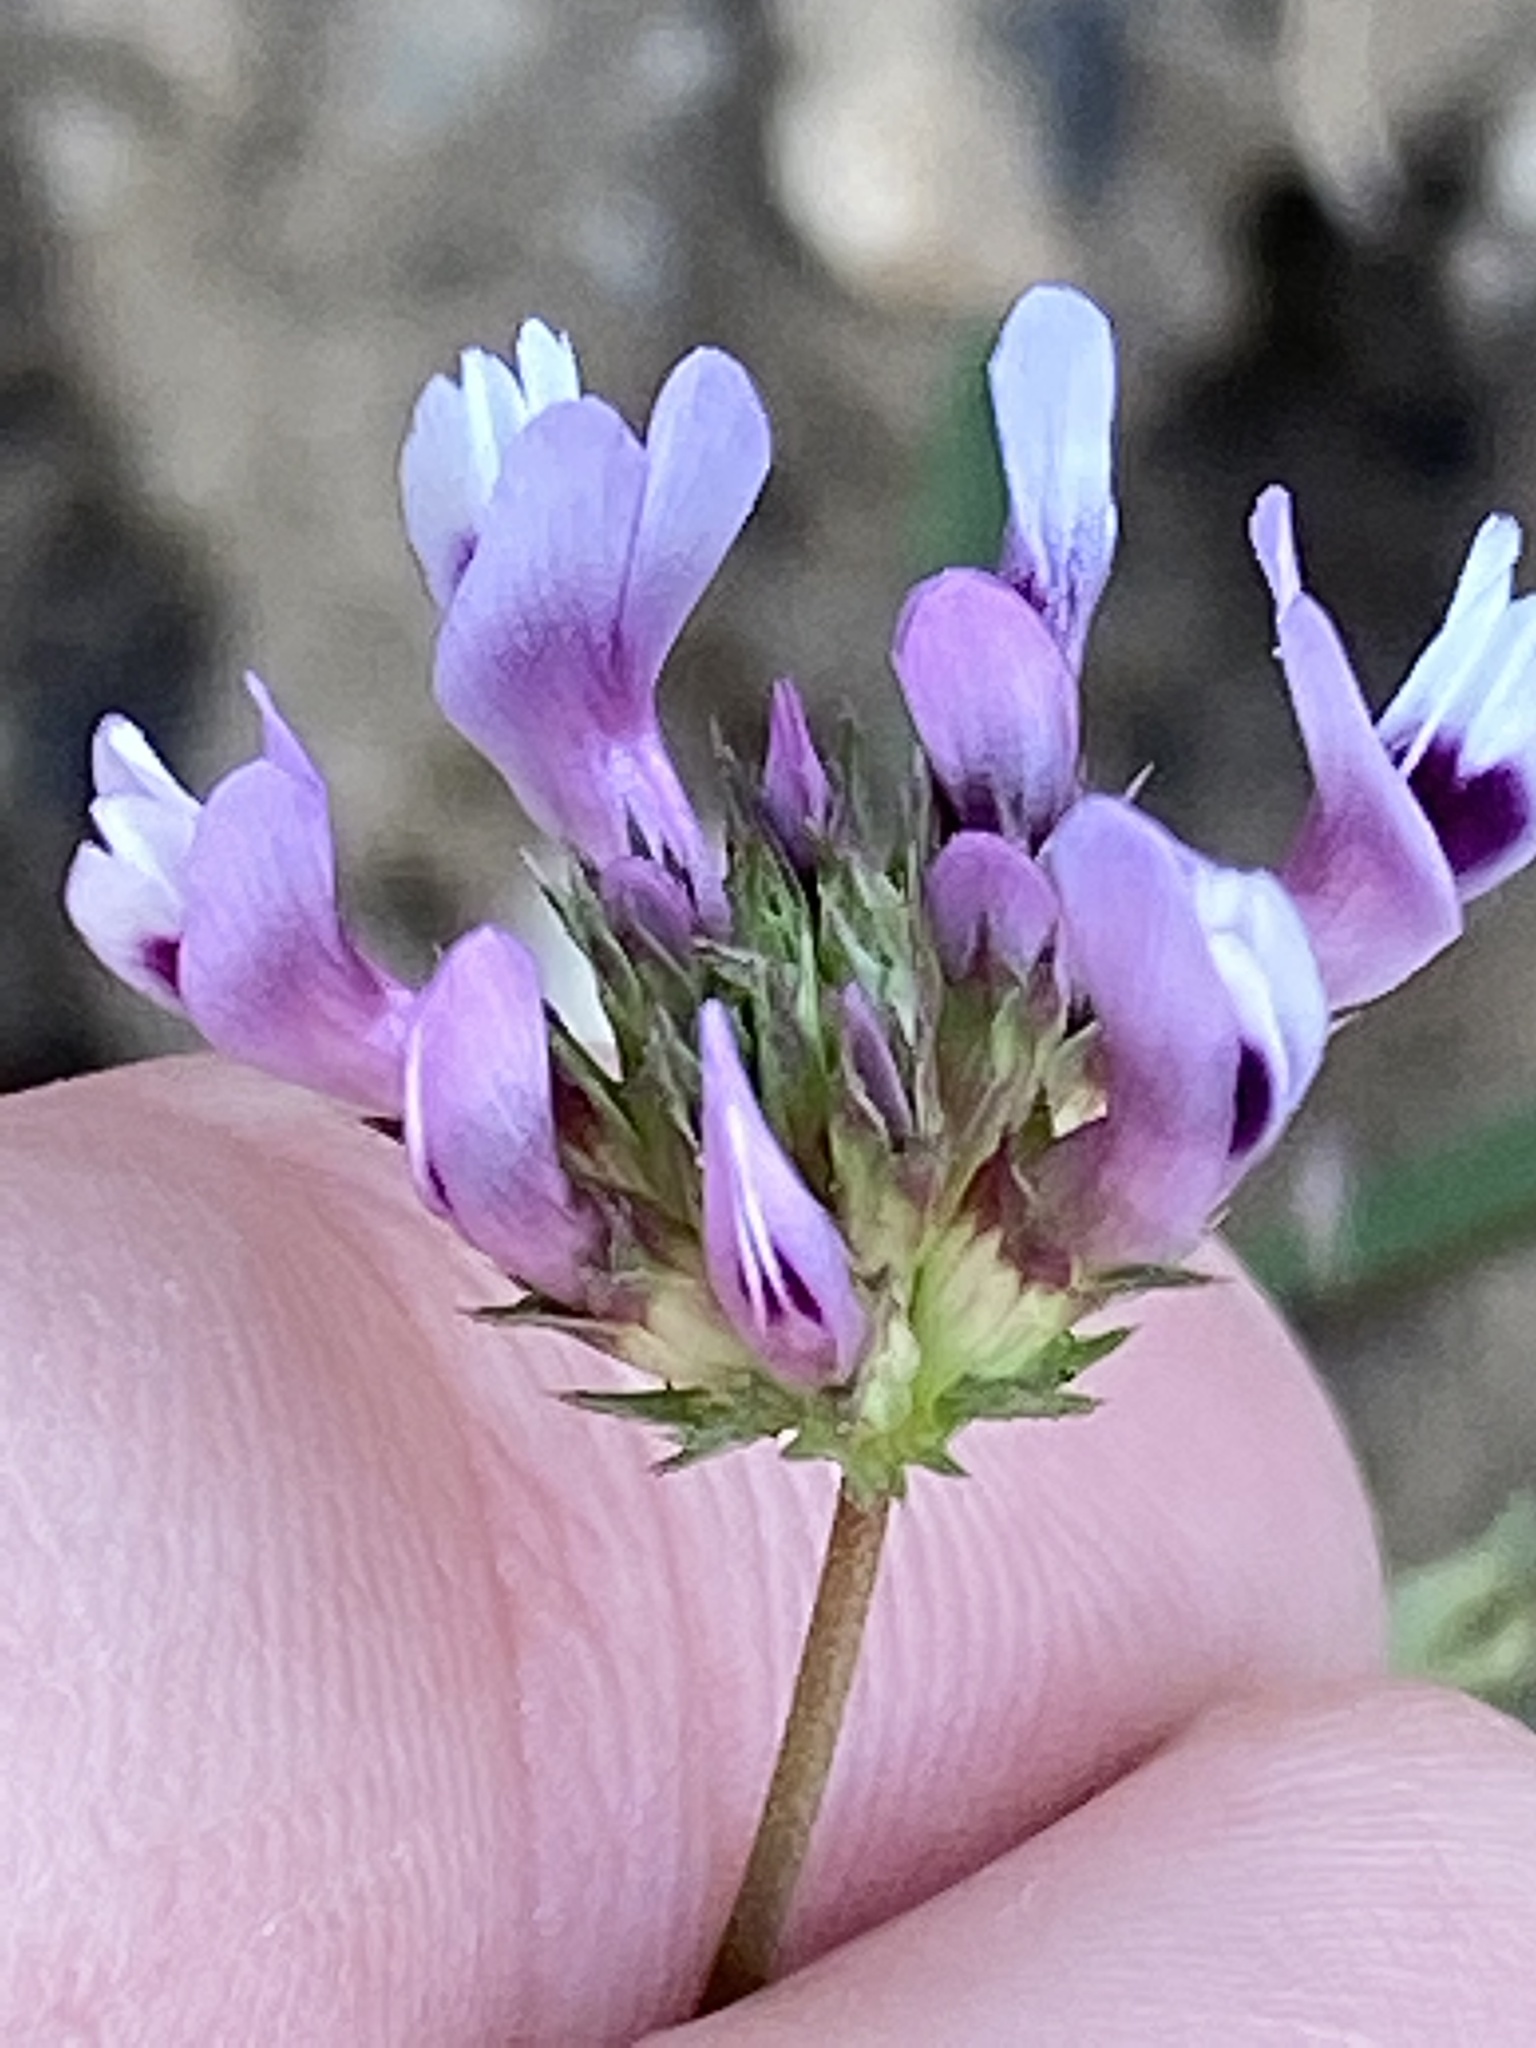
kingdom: Plantae
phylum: Tracheophyta
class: Magnoliopsida
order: Fabales
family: Fabaceae
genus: Trifolium
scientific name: Trifolium willdenovii
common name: Tomcat clover
